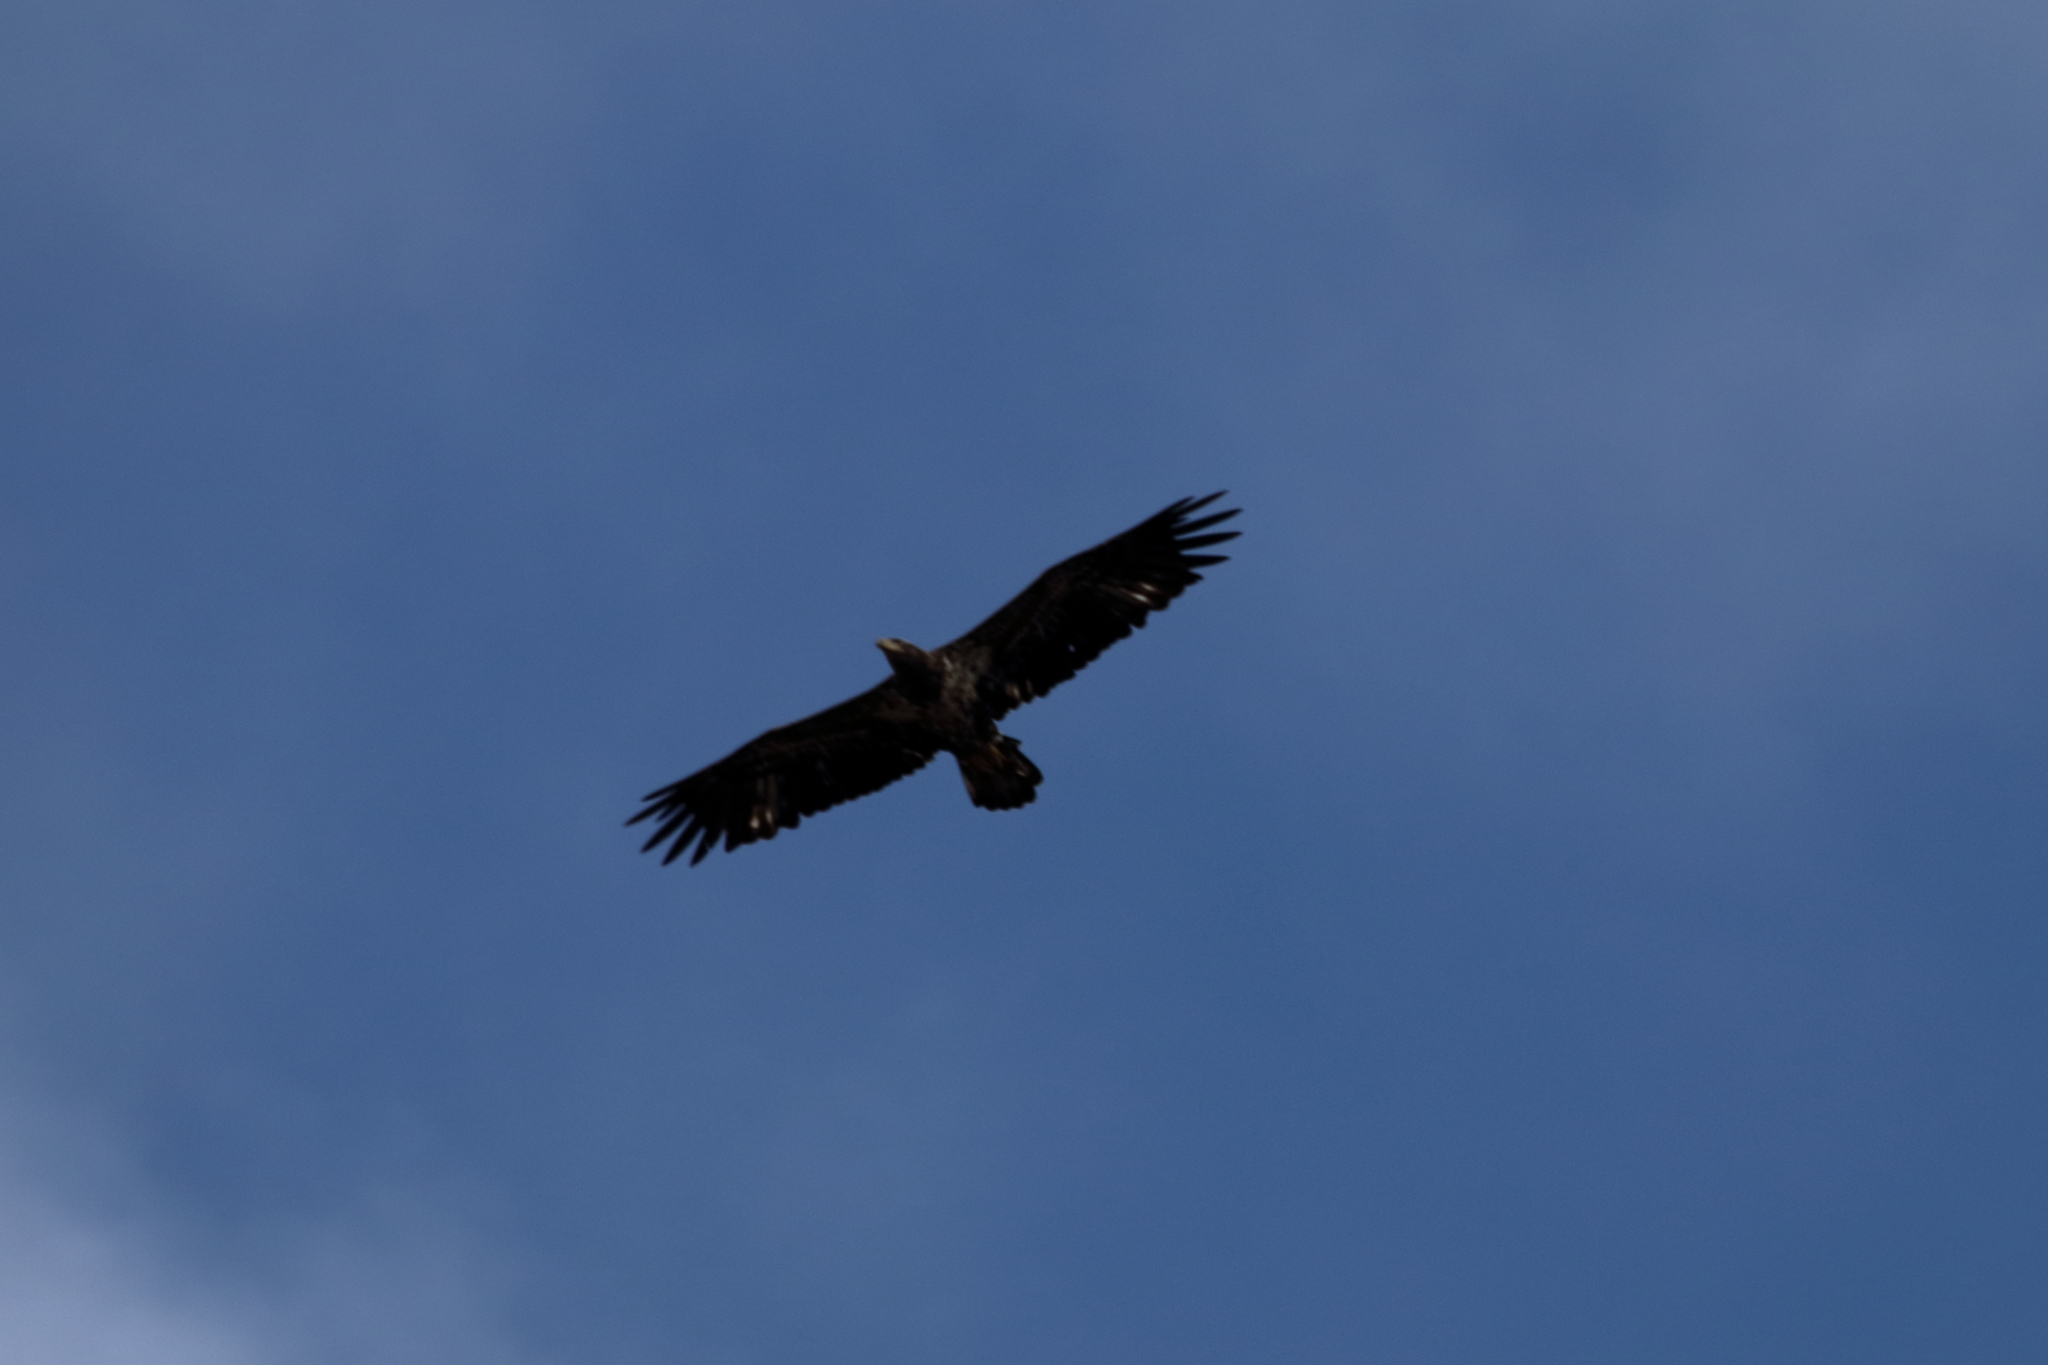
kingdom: Animalia
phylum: Chordata
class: Aves
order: Accipitriformes
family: Accipitridae
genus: Haliaeetus
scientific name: Haliaeetus leucocephalus
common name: Bald eagle
